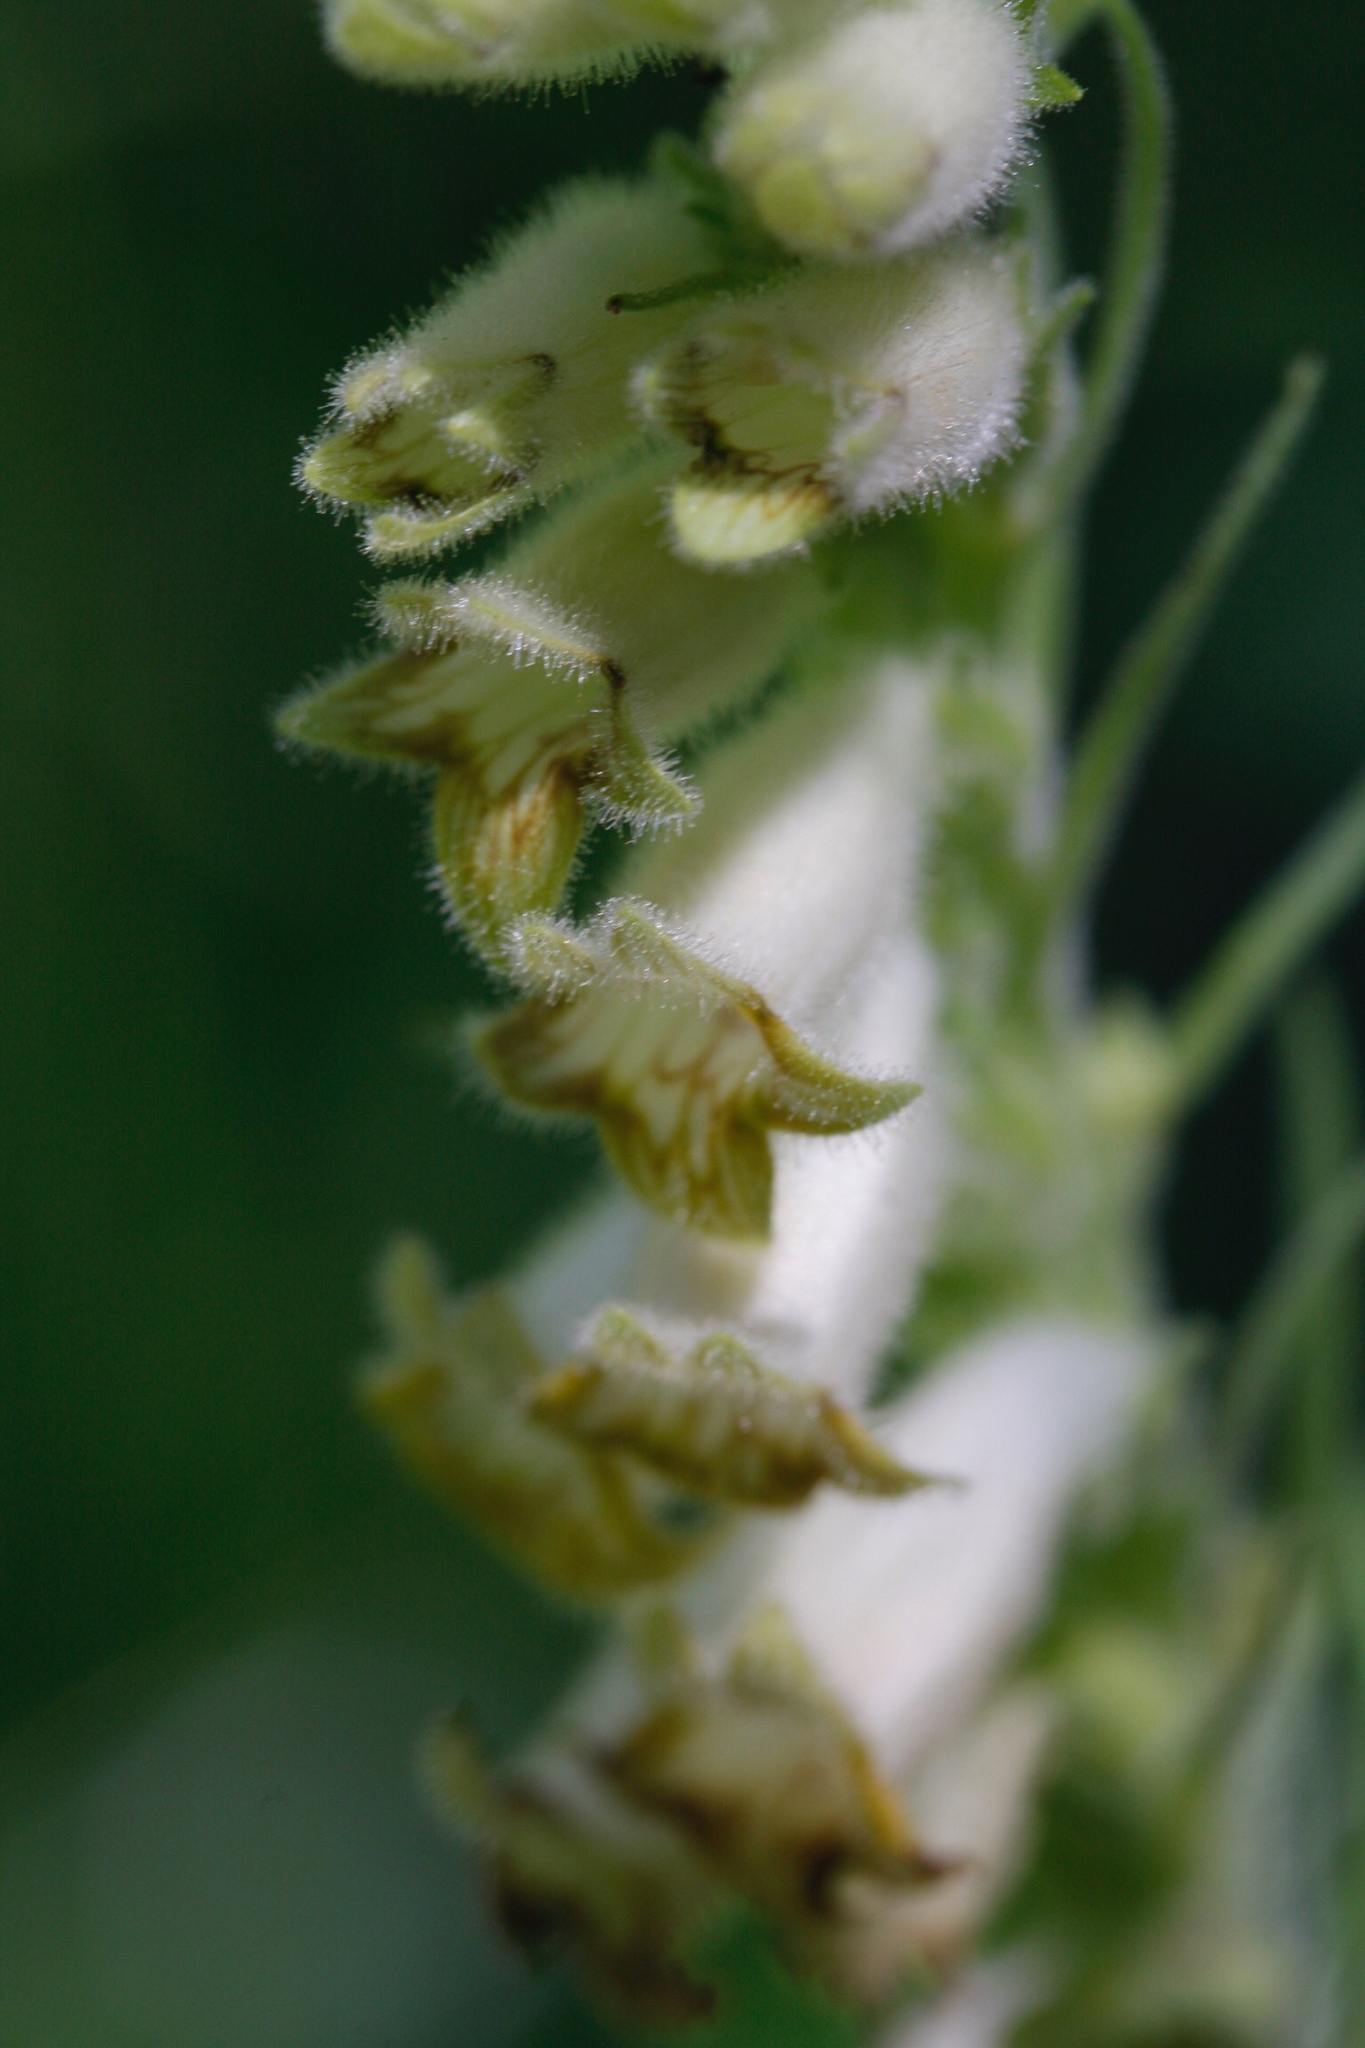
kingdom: Plantae
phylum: Tracheophyta
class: Magnoliopsida
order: Lamiales
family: Plantaginaceae
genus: Digitalis
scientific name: Digitalis viridiflora
